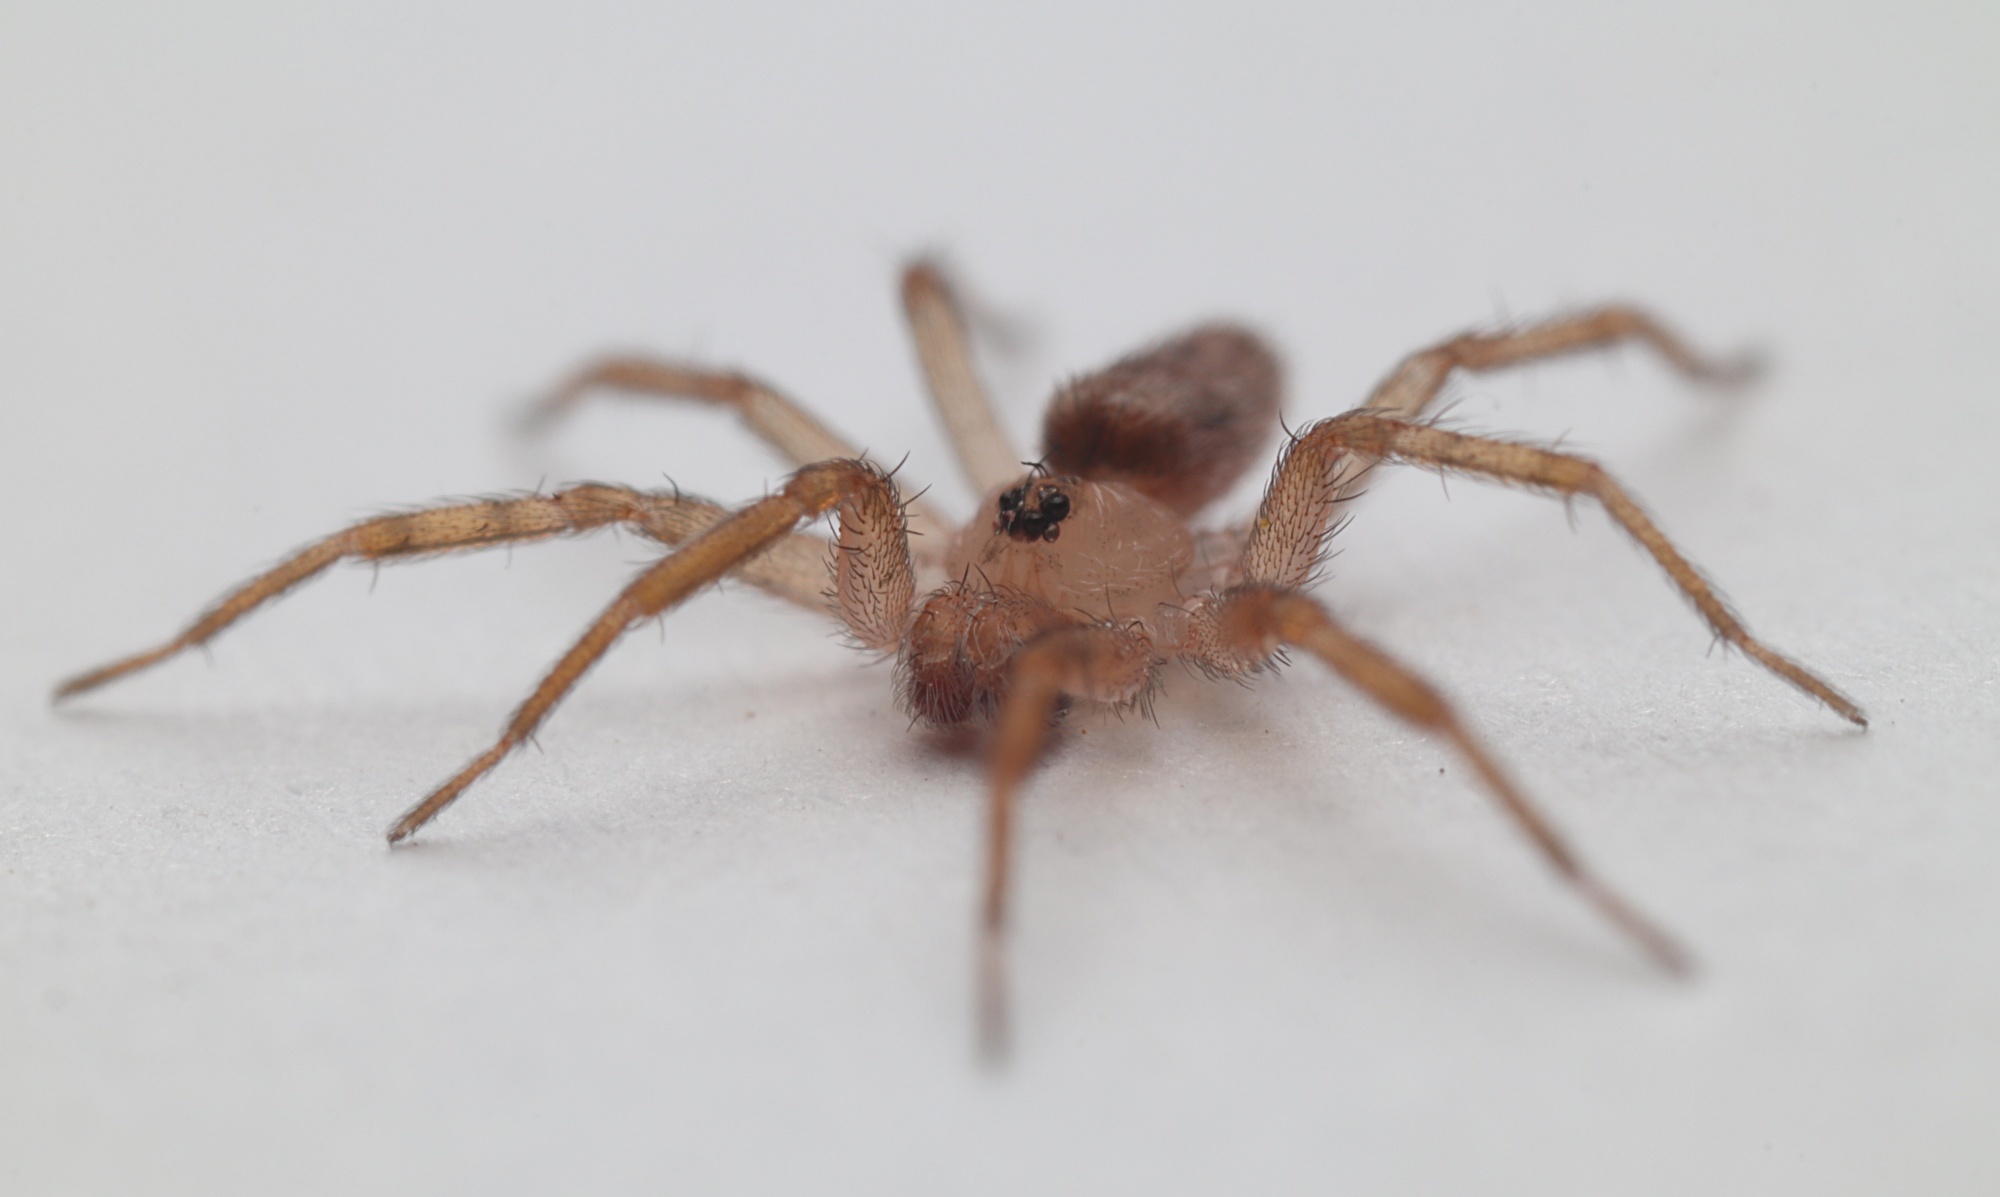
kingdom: Animalia
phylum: Arthropoda
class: Arachnida
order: Araneae
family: Oecobiidae
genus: Oecobius
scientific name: Oecobius navus
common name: Flatmesh weaver
